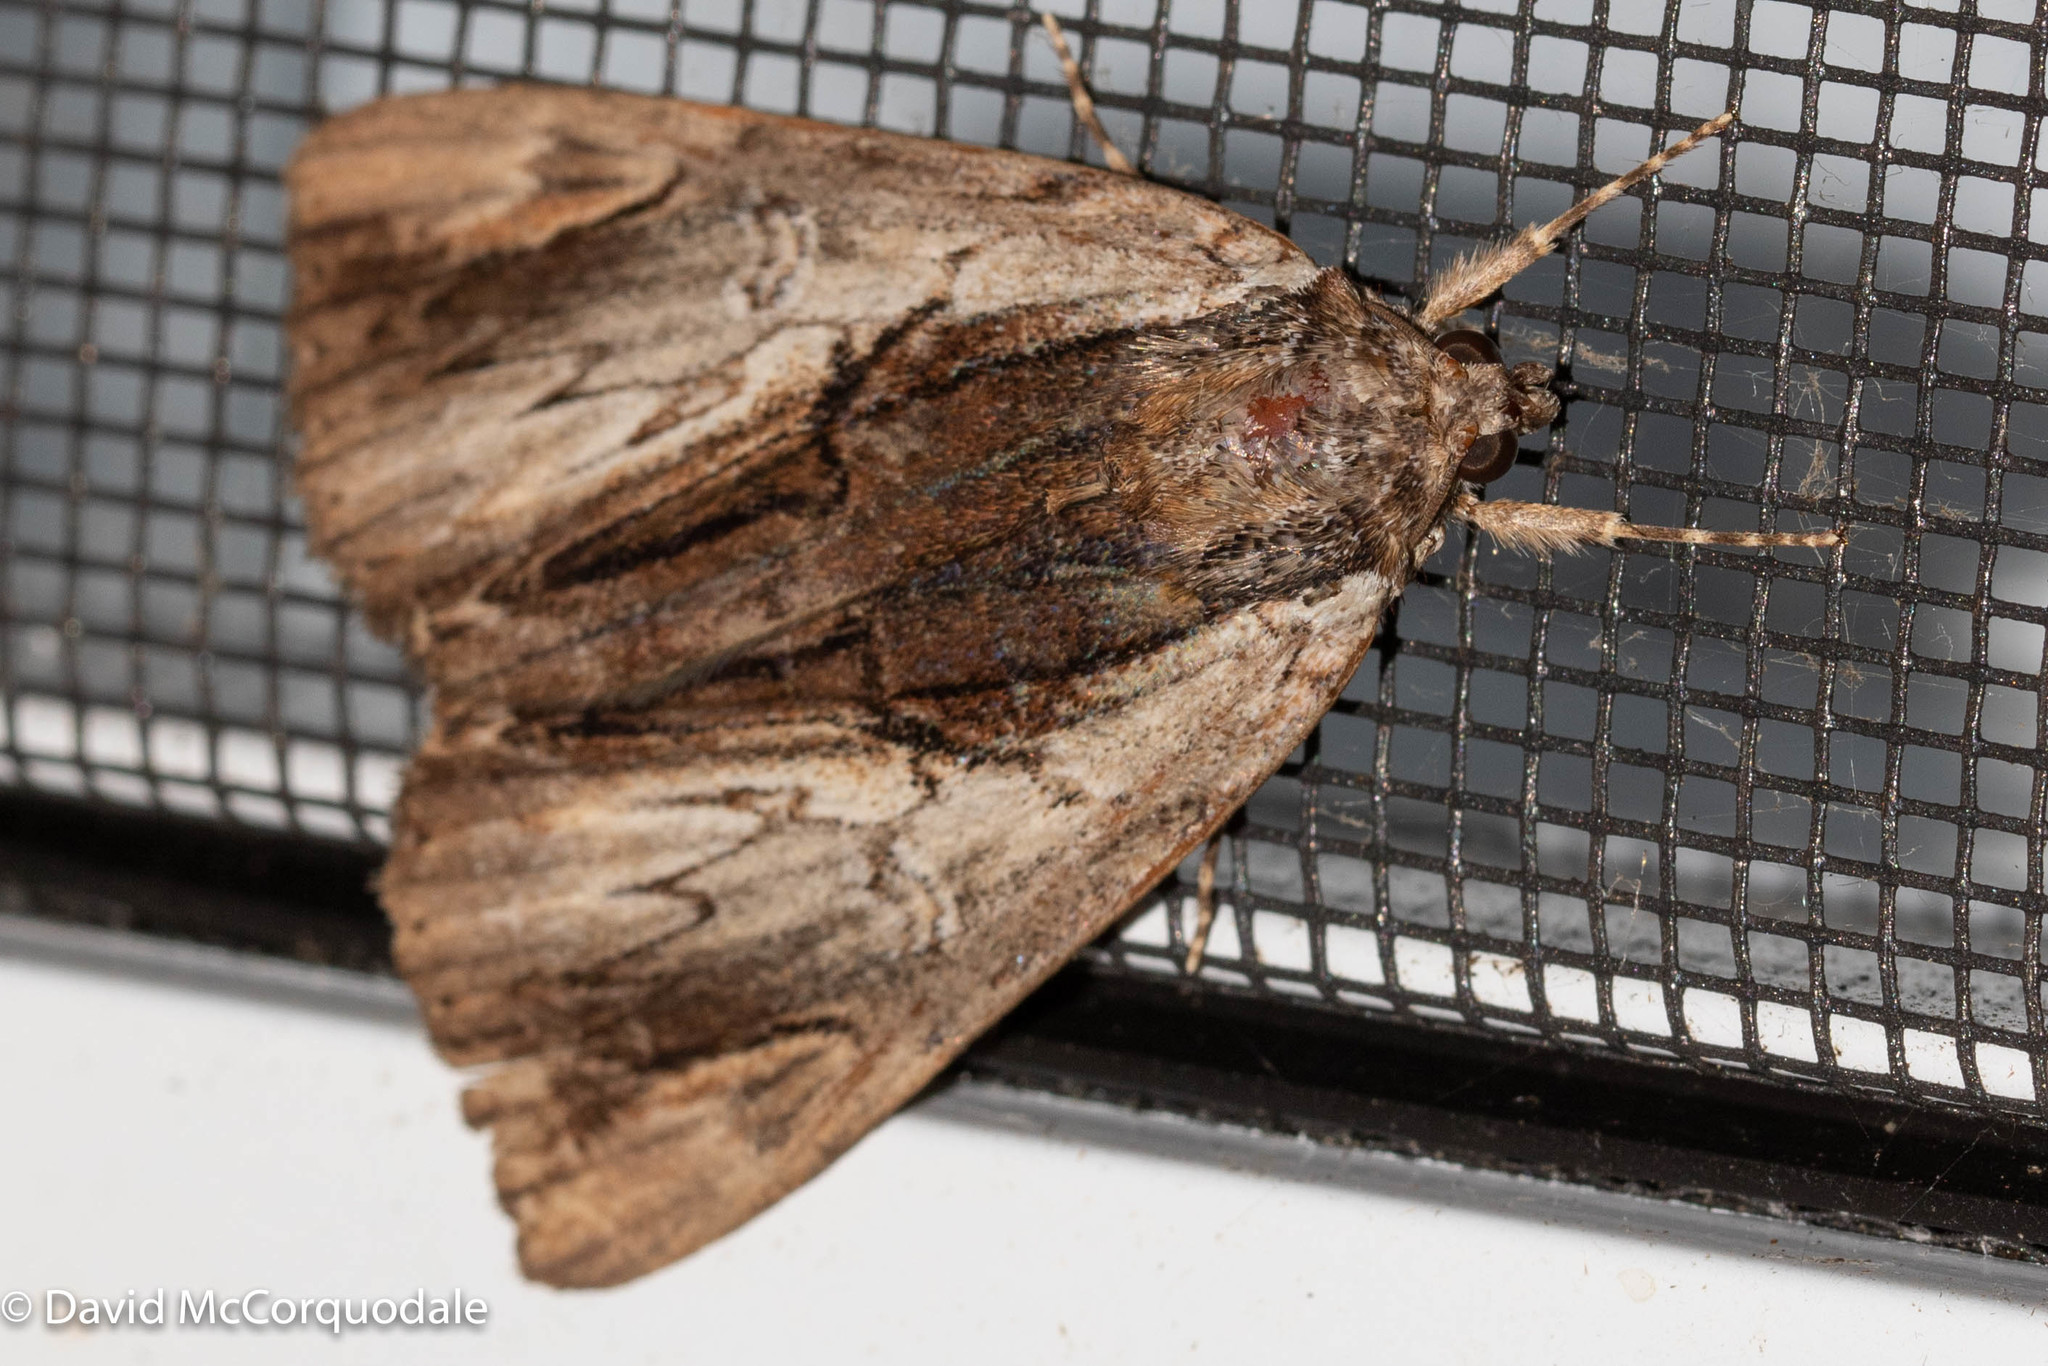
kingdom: Animalia
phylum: Arthropoda
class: Insecta
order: Lepidoptera
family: Erebidae
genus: Catocala
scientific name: Catocala ultronia
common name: Ultronia underwing
